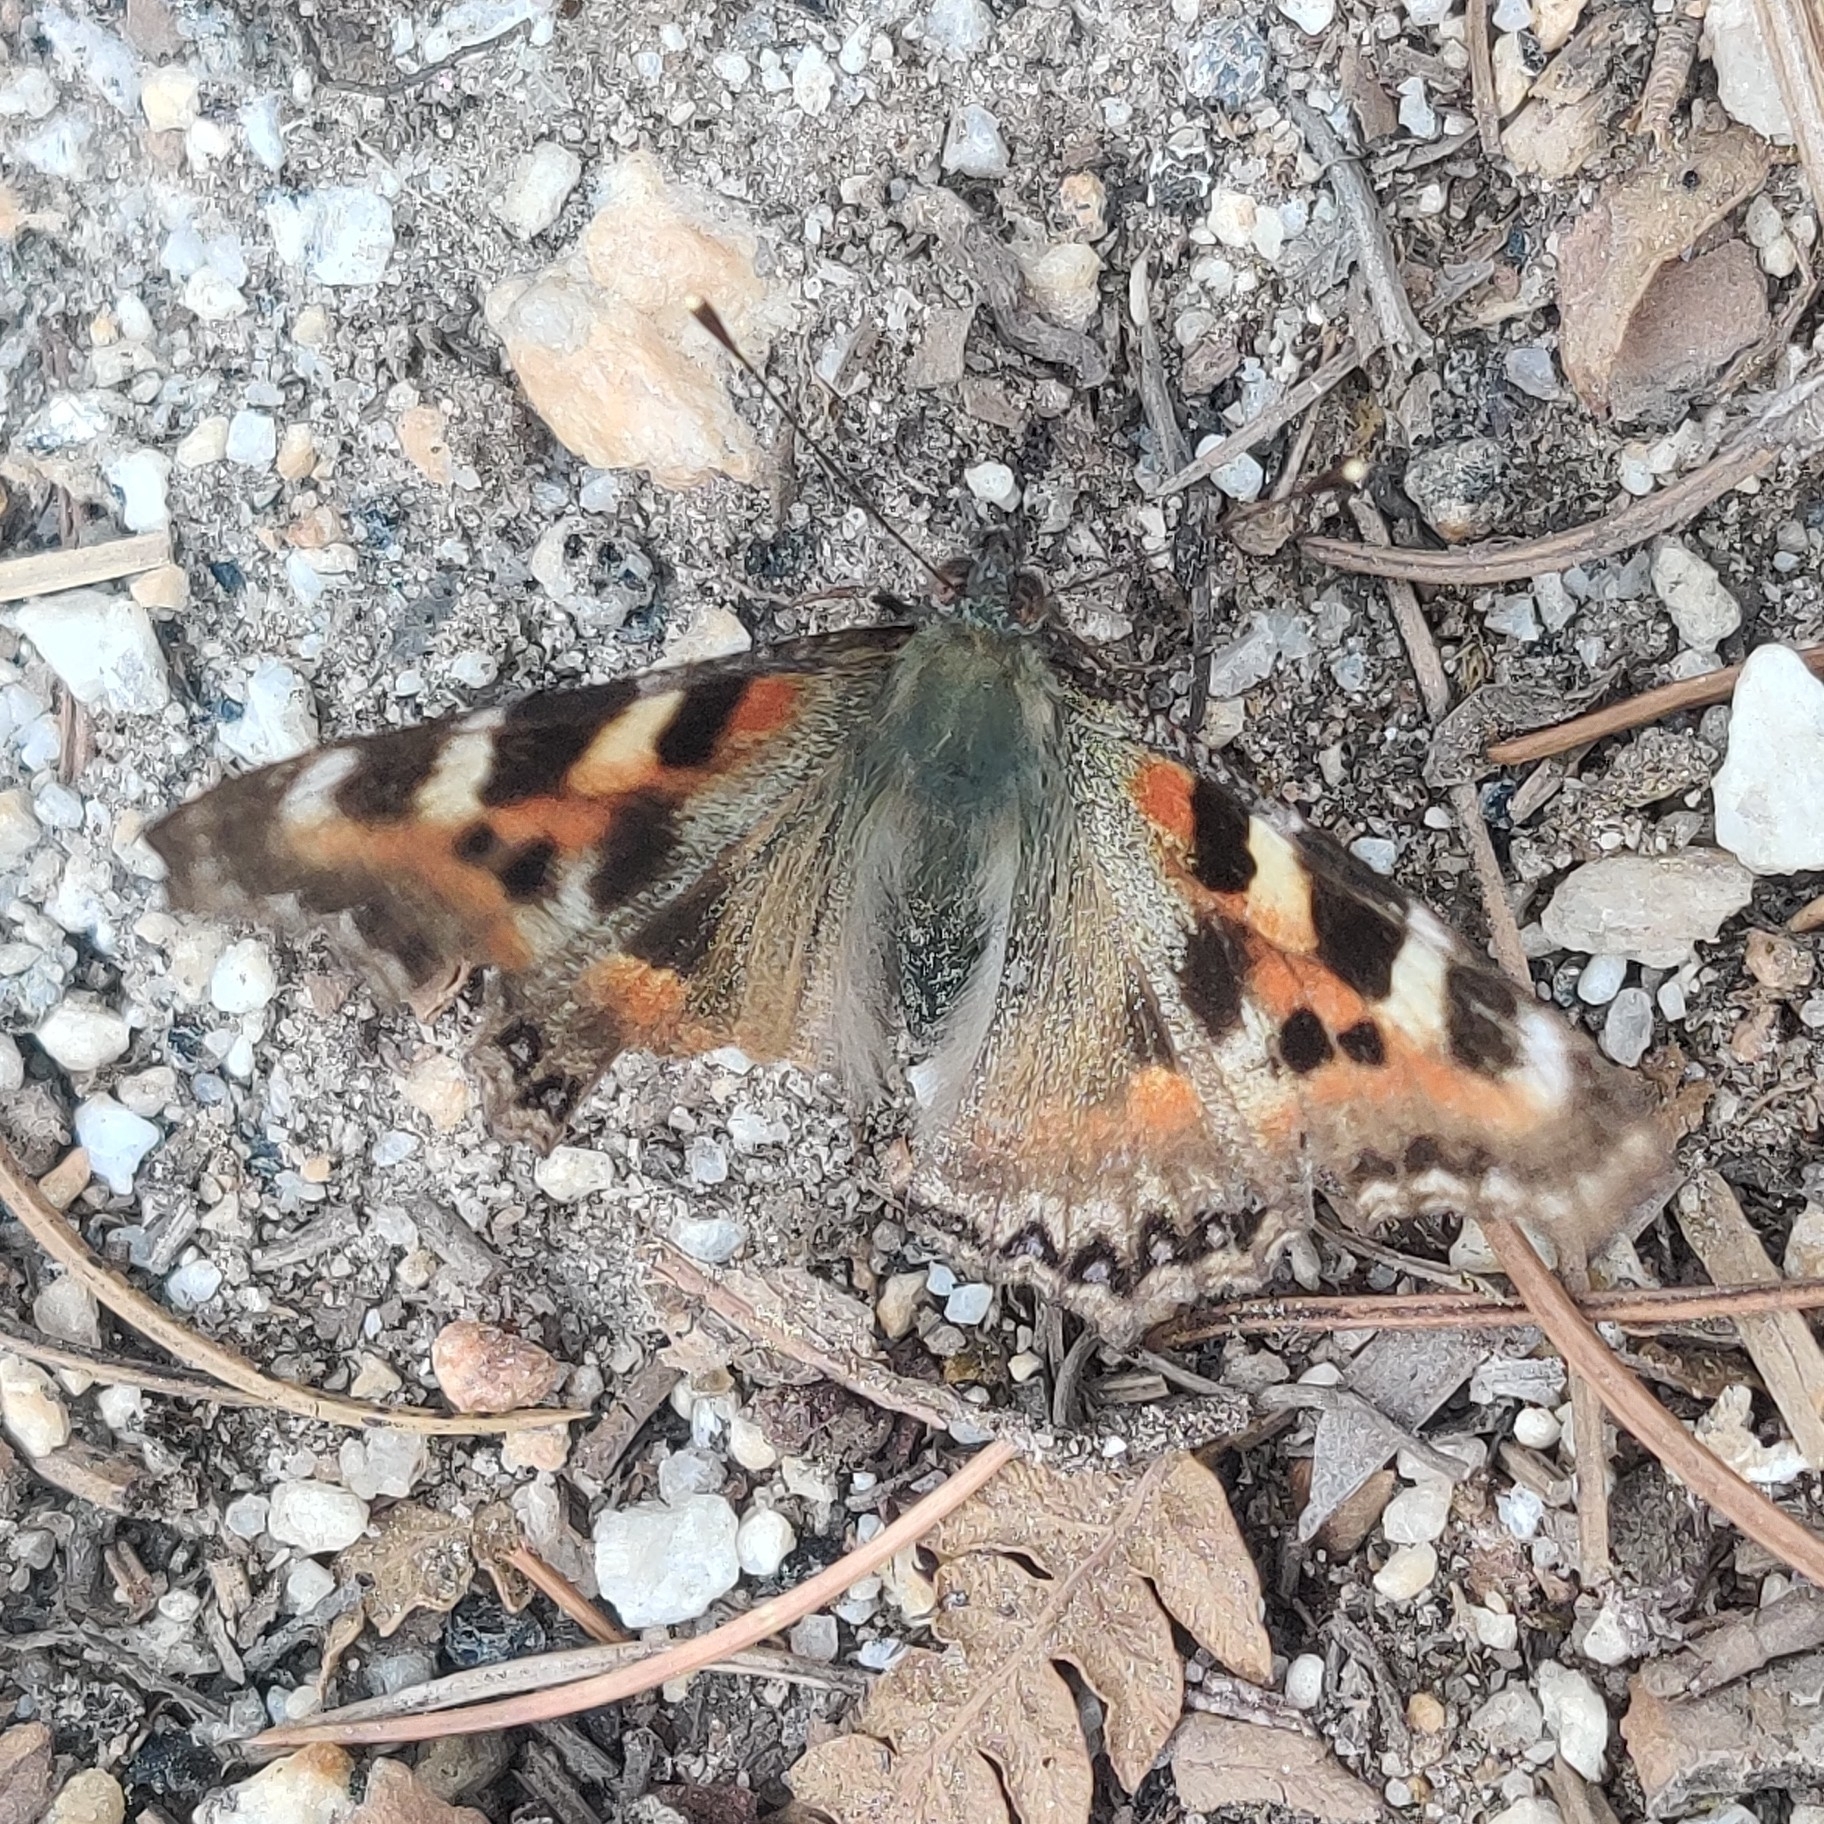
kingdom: Animalia
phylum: Arthropoda
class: Insecta
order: Lepidoptera
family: Nymphalidae
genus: Aglais
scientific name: Aglais caschmirensis
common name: Indian tortoiseshell
